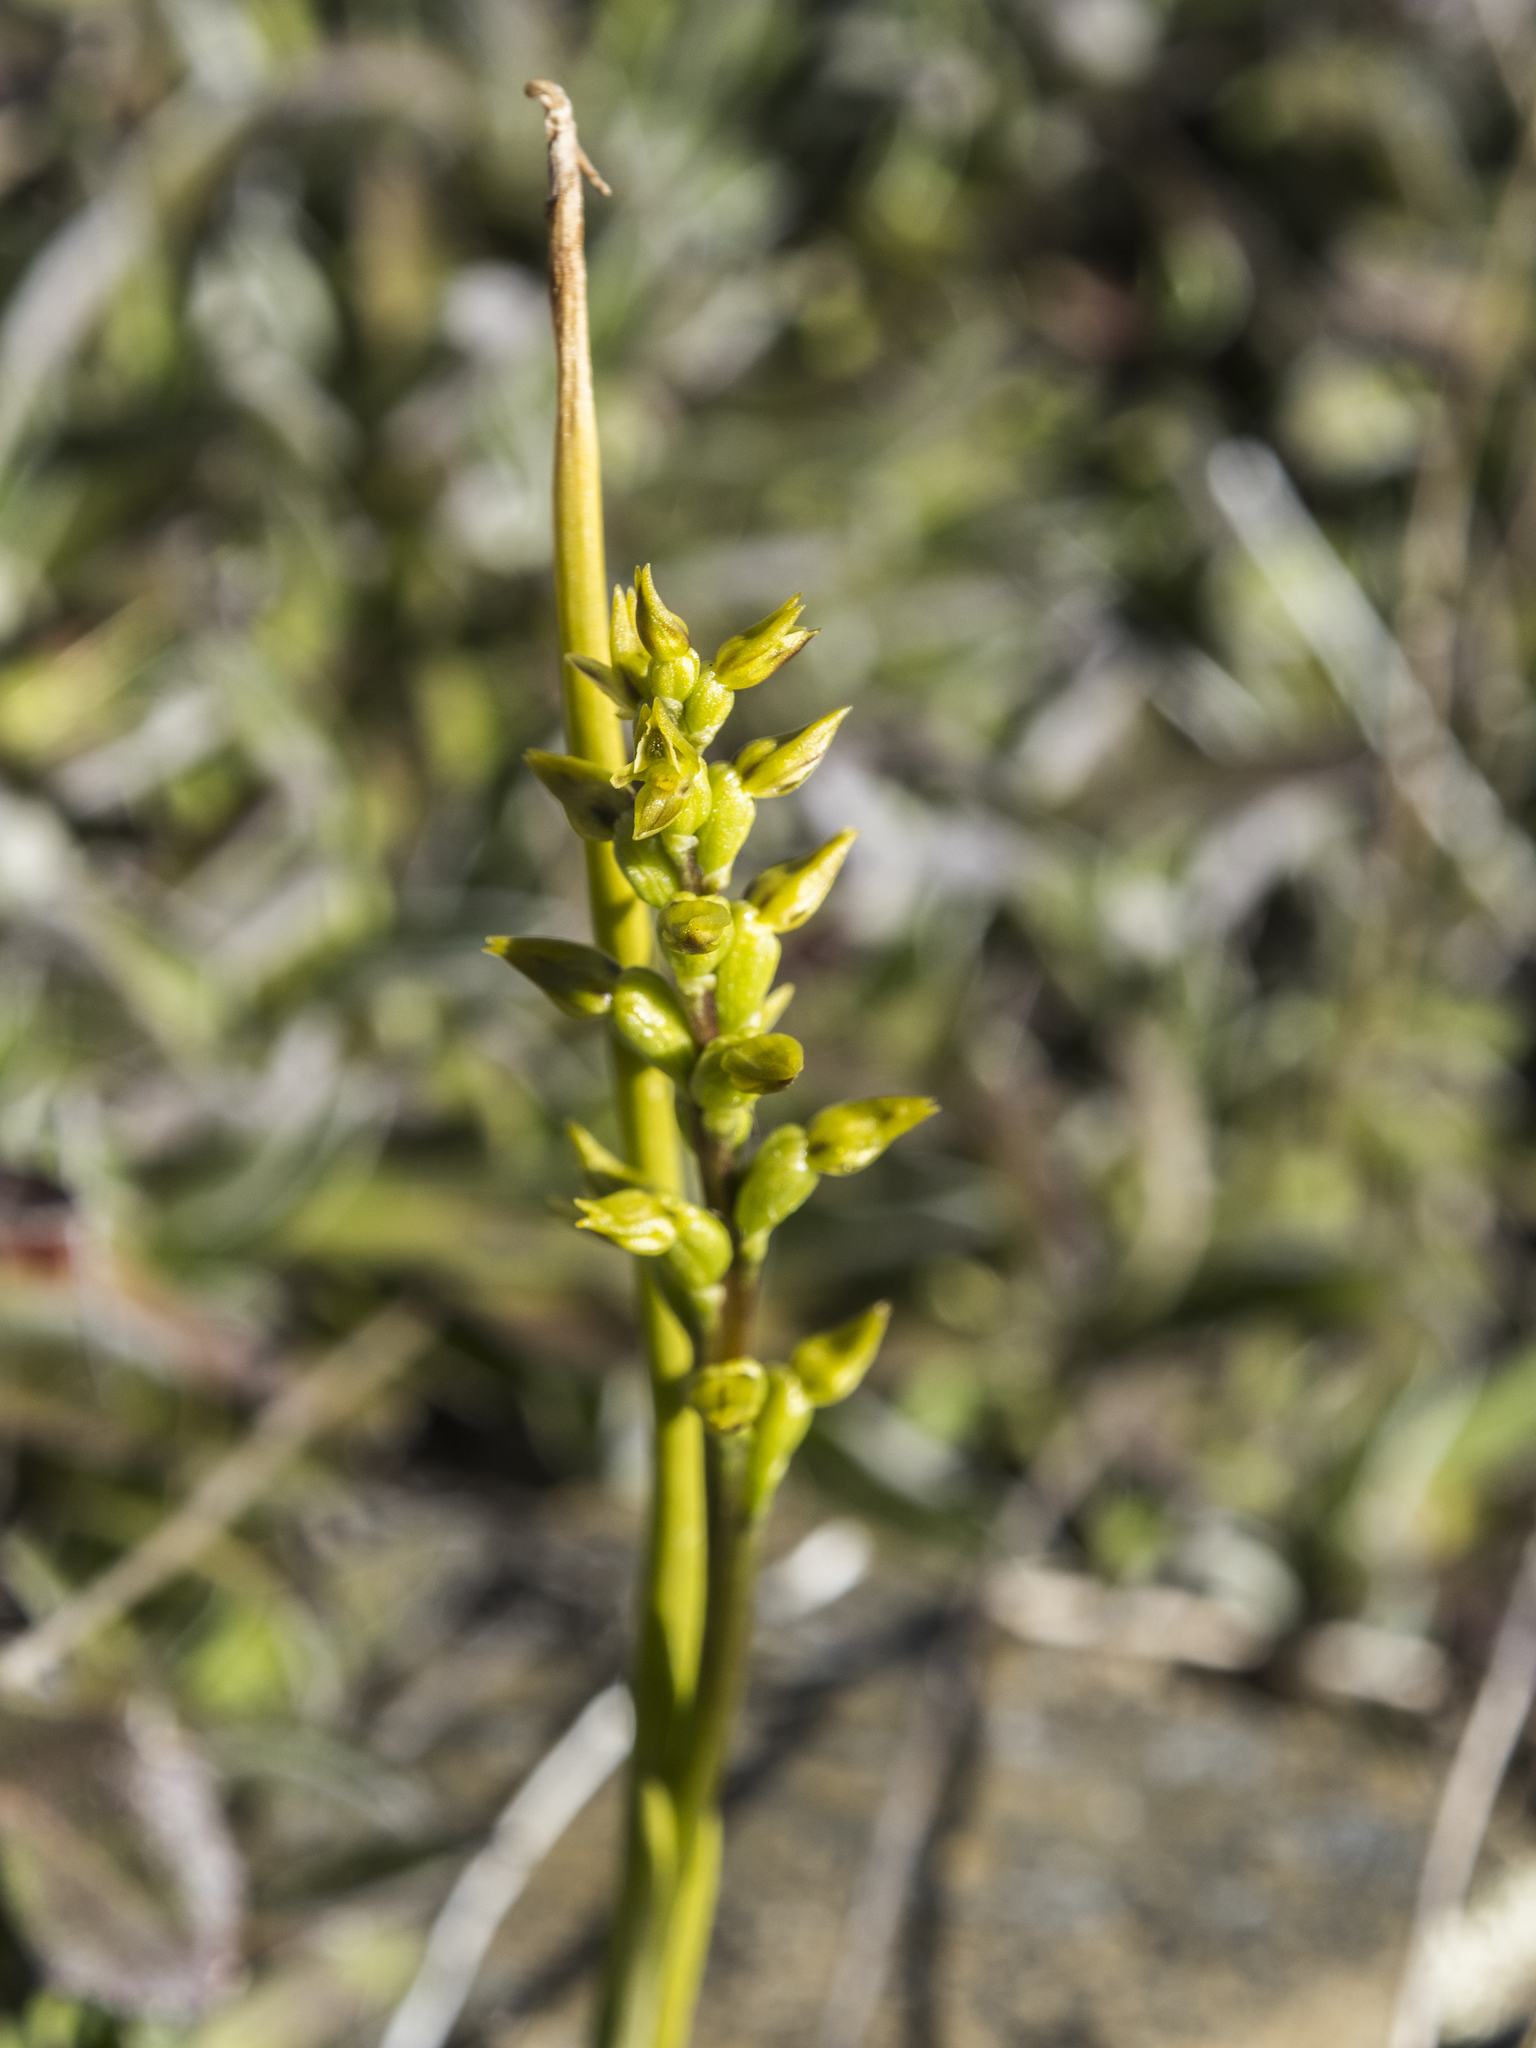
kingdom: Plantae
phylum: Tracheophyta
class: Liliopsida
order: Asparagales
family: Orchidaceae
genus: Prasophyllum
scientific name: Prasophyllum colensoi
